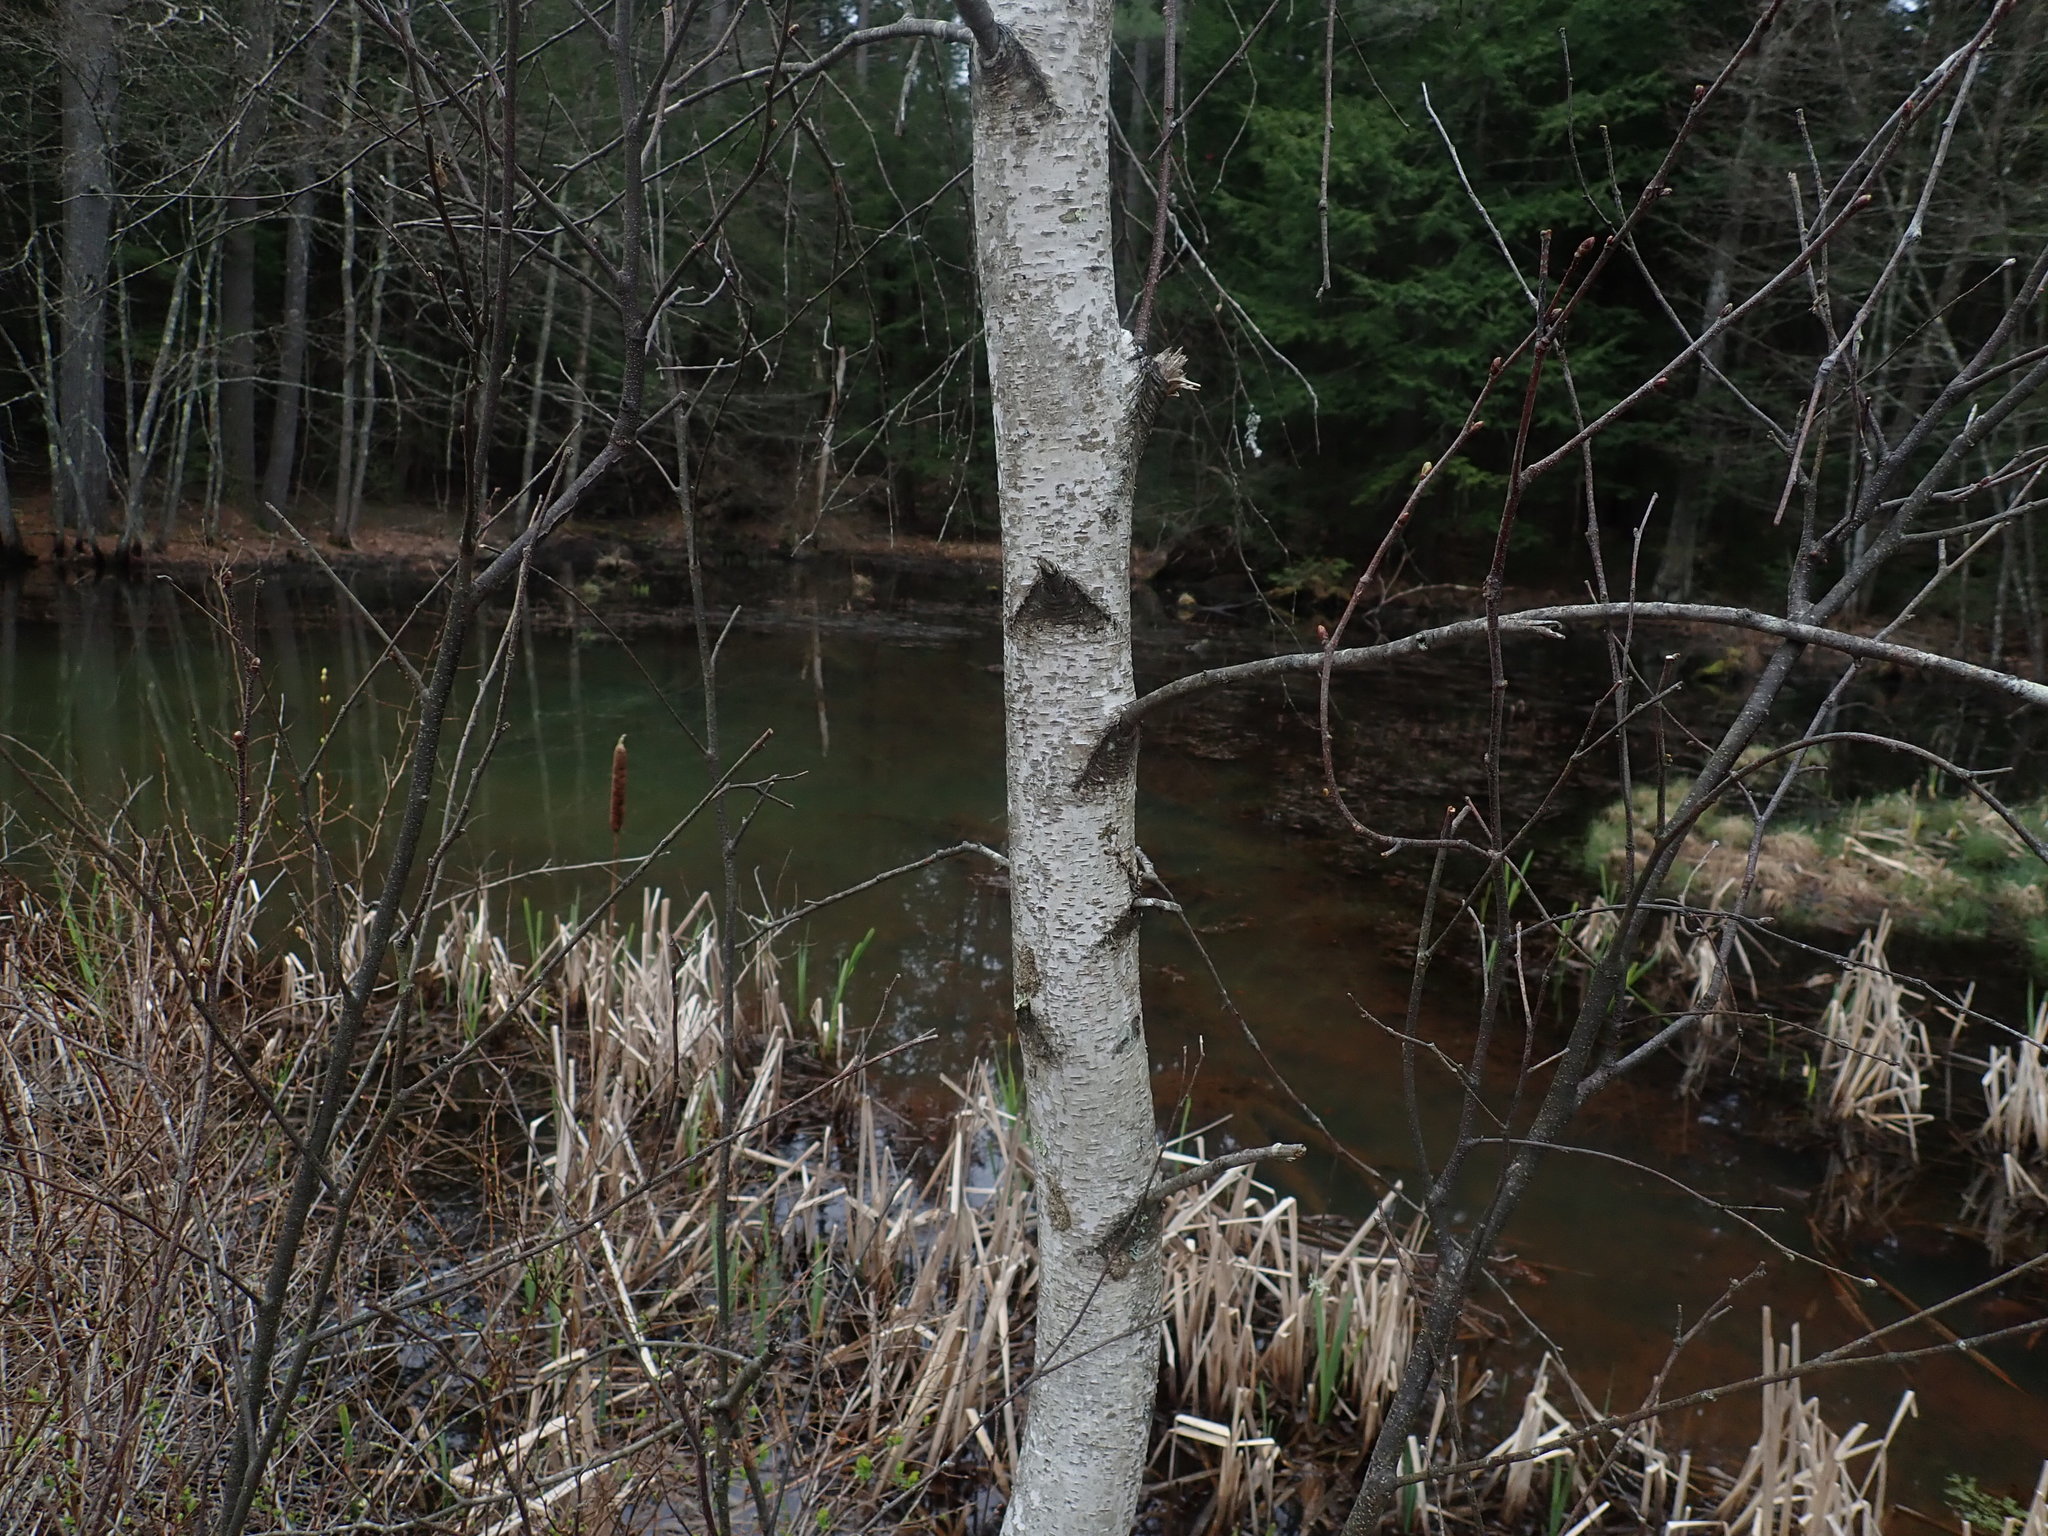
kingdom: Plantae
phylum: Tracheophyta
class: Magnoliopsida
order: Fagales
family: Betulaceae
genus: Betula
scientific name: Betula populifolia
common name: Fire birch
